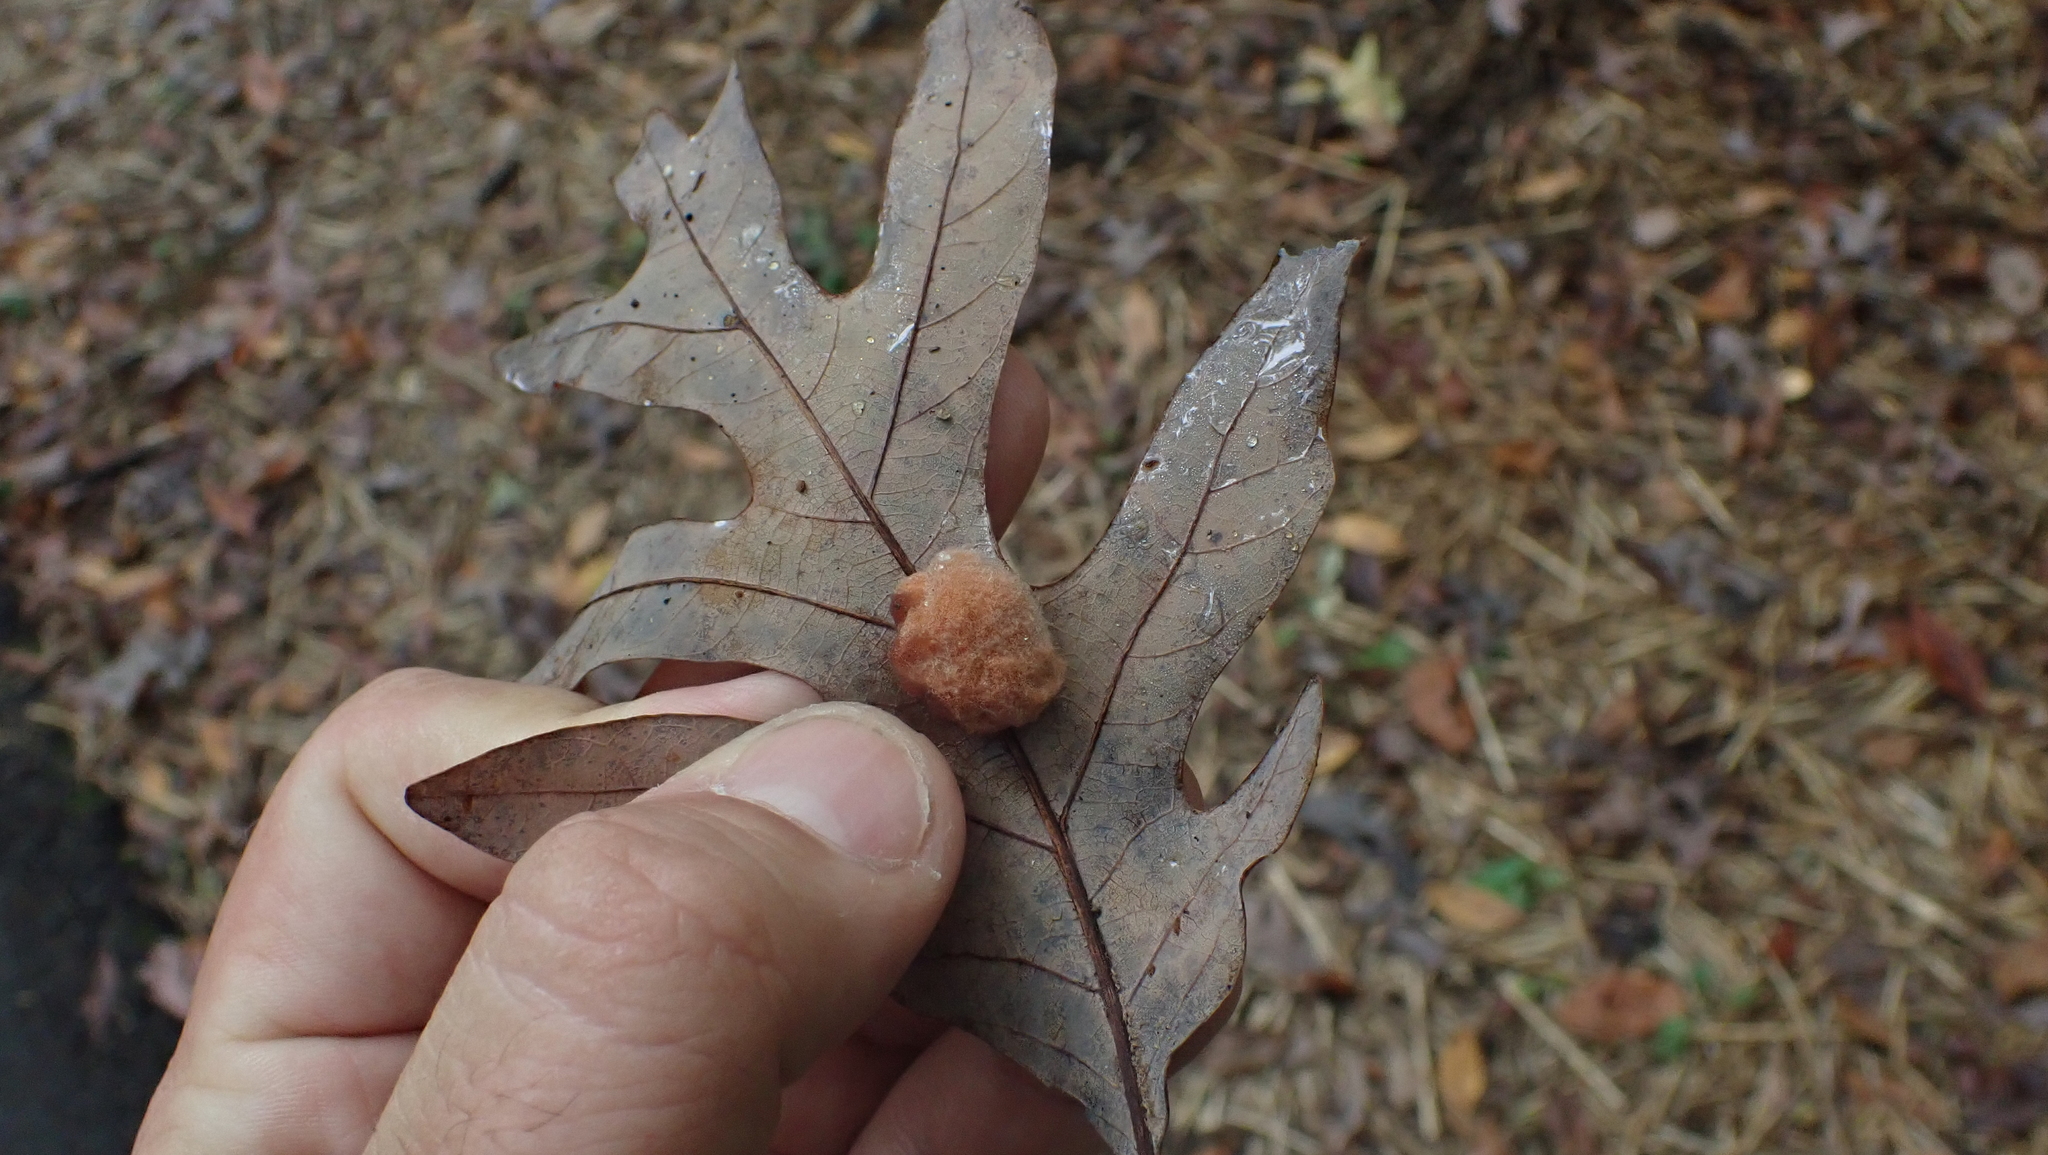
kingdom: Animalia
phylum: Arthropoda
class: Insecta
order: Hymenoptera
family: Cynipidae
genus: Andricus
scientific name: Andricus quercusflocci
